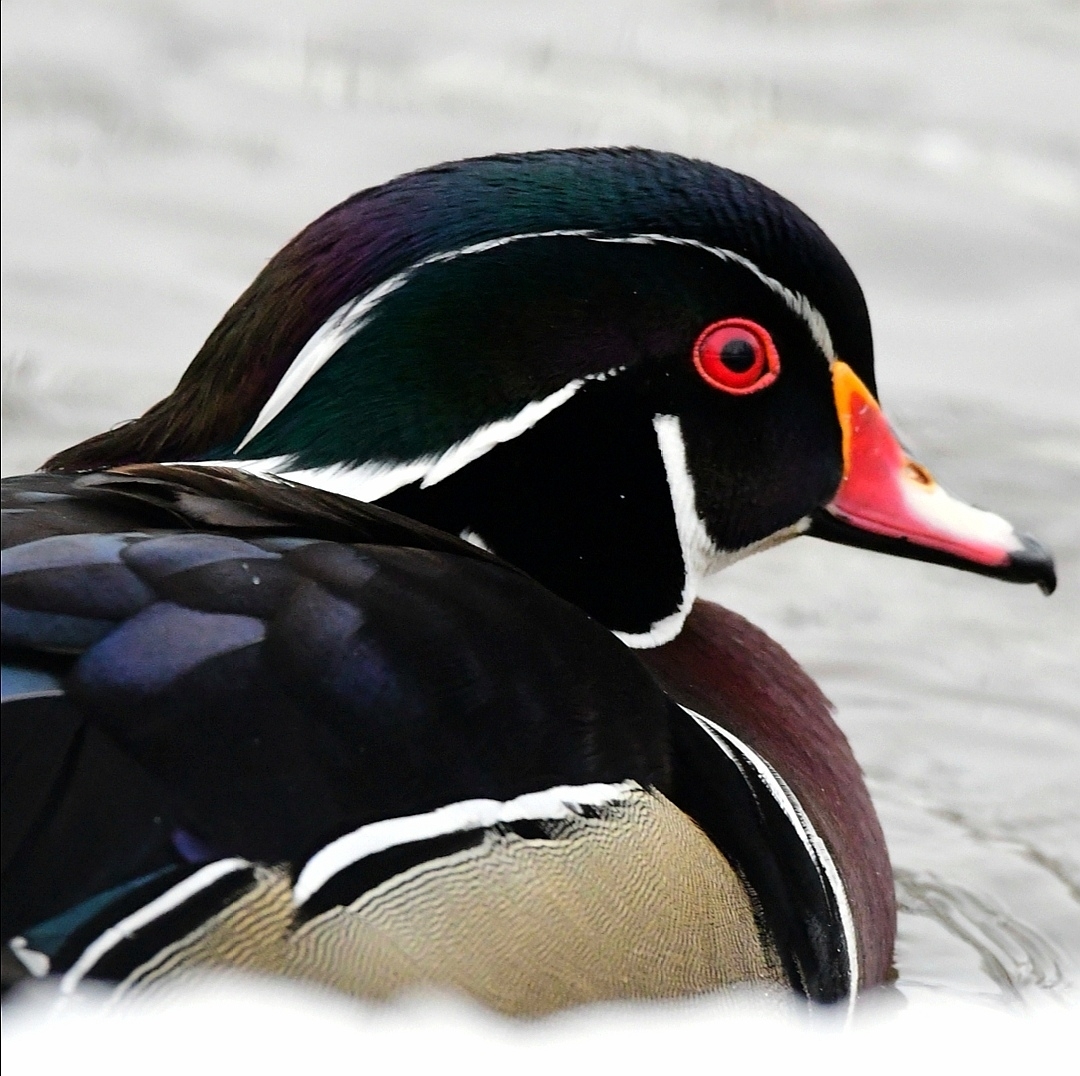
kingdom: Animalia
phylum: Chordata
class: Aves
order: Anseriformes
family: Anatidae
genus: Aix
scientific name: Aix sponsa
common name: Wood duck
